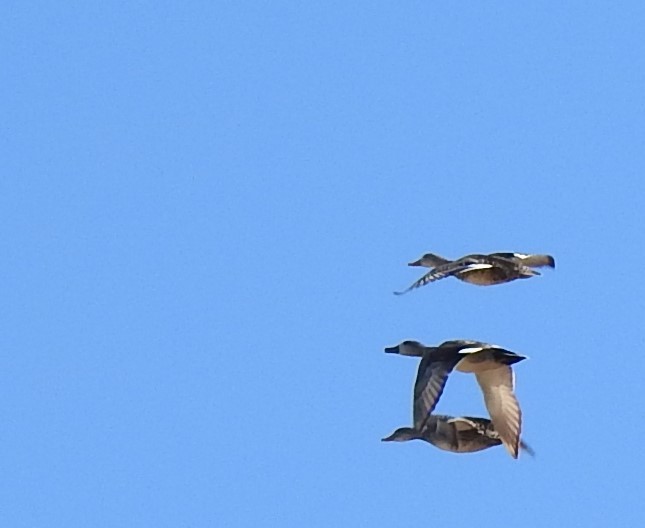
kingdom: Animalia
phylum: Chordata
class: Aves
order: Anseriformes
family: Anatidae
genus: Mareca
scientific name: Mareca strepera
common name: Gadwall
